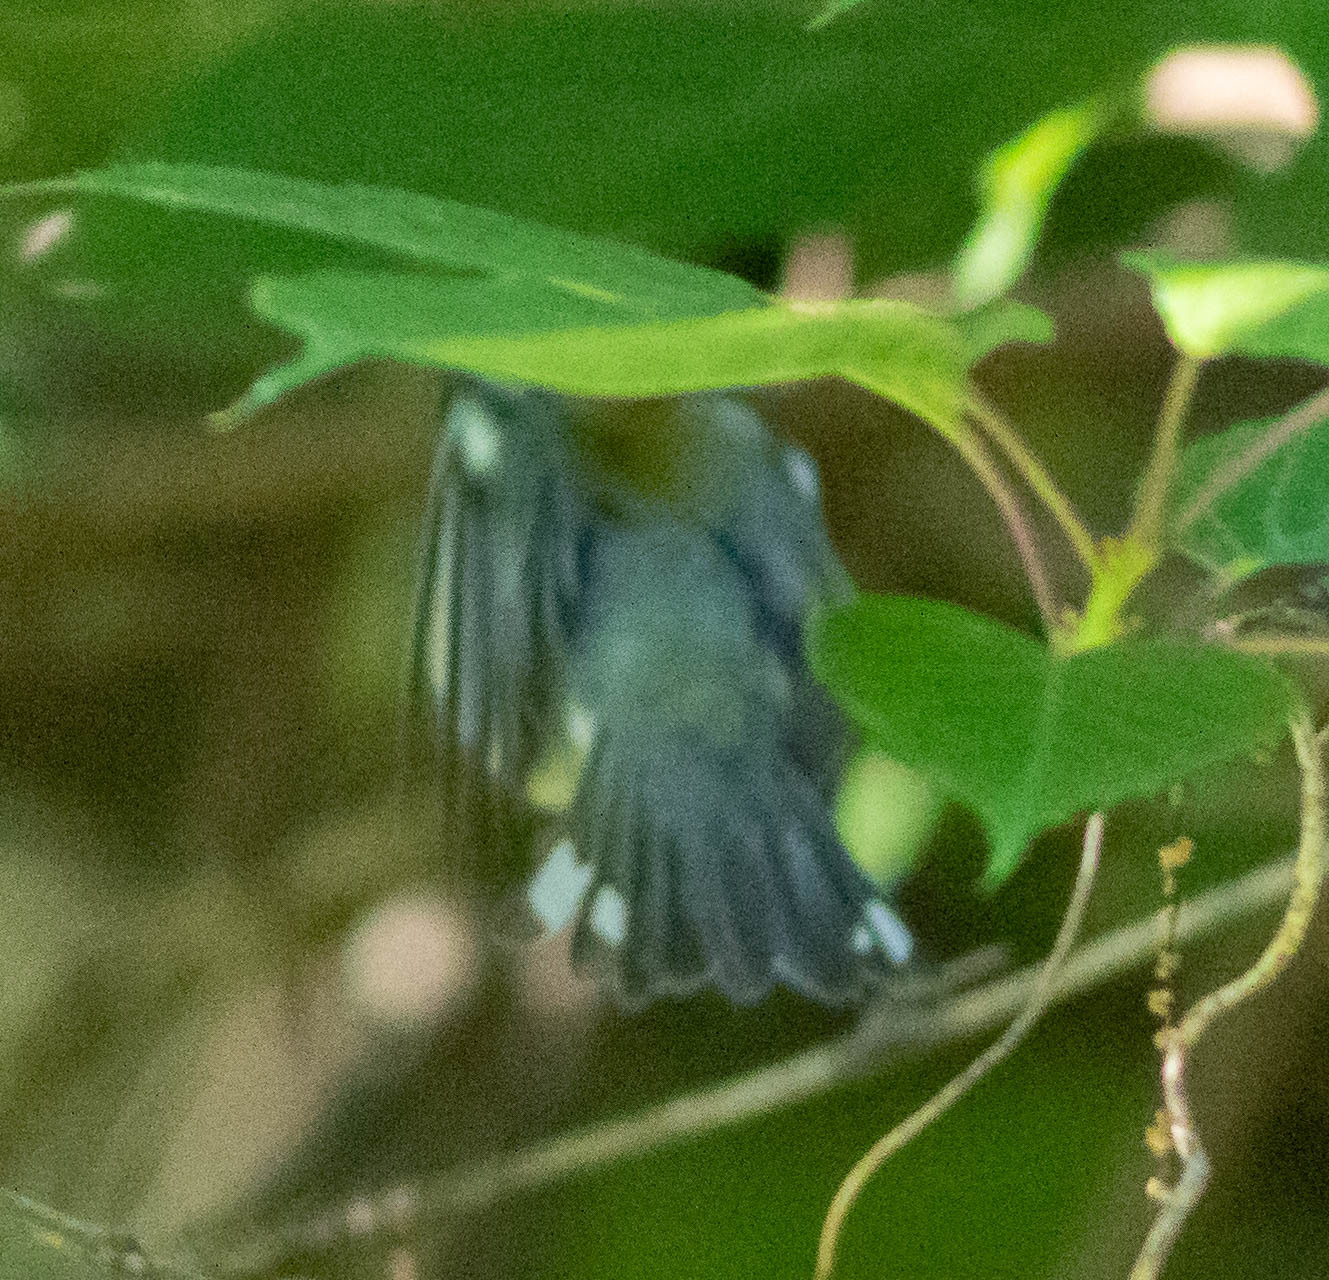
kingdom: Animalia
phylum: Chordata
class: Aves
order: Passeriformes
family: Parulidae
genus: Setophaga
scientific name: Setophaga cerulea
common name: Cerulean warbler
